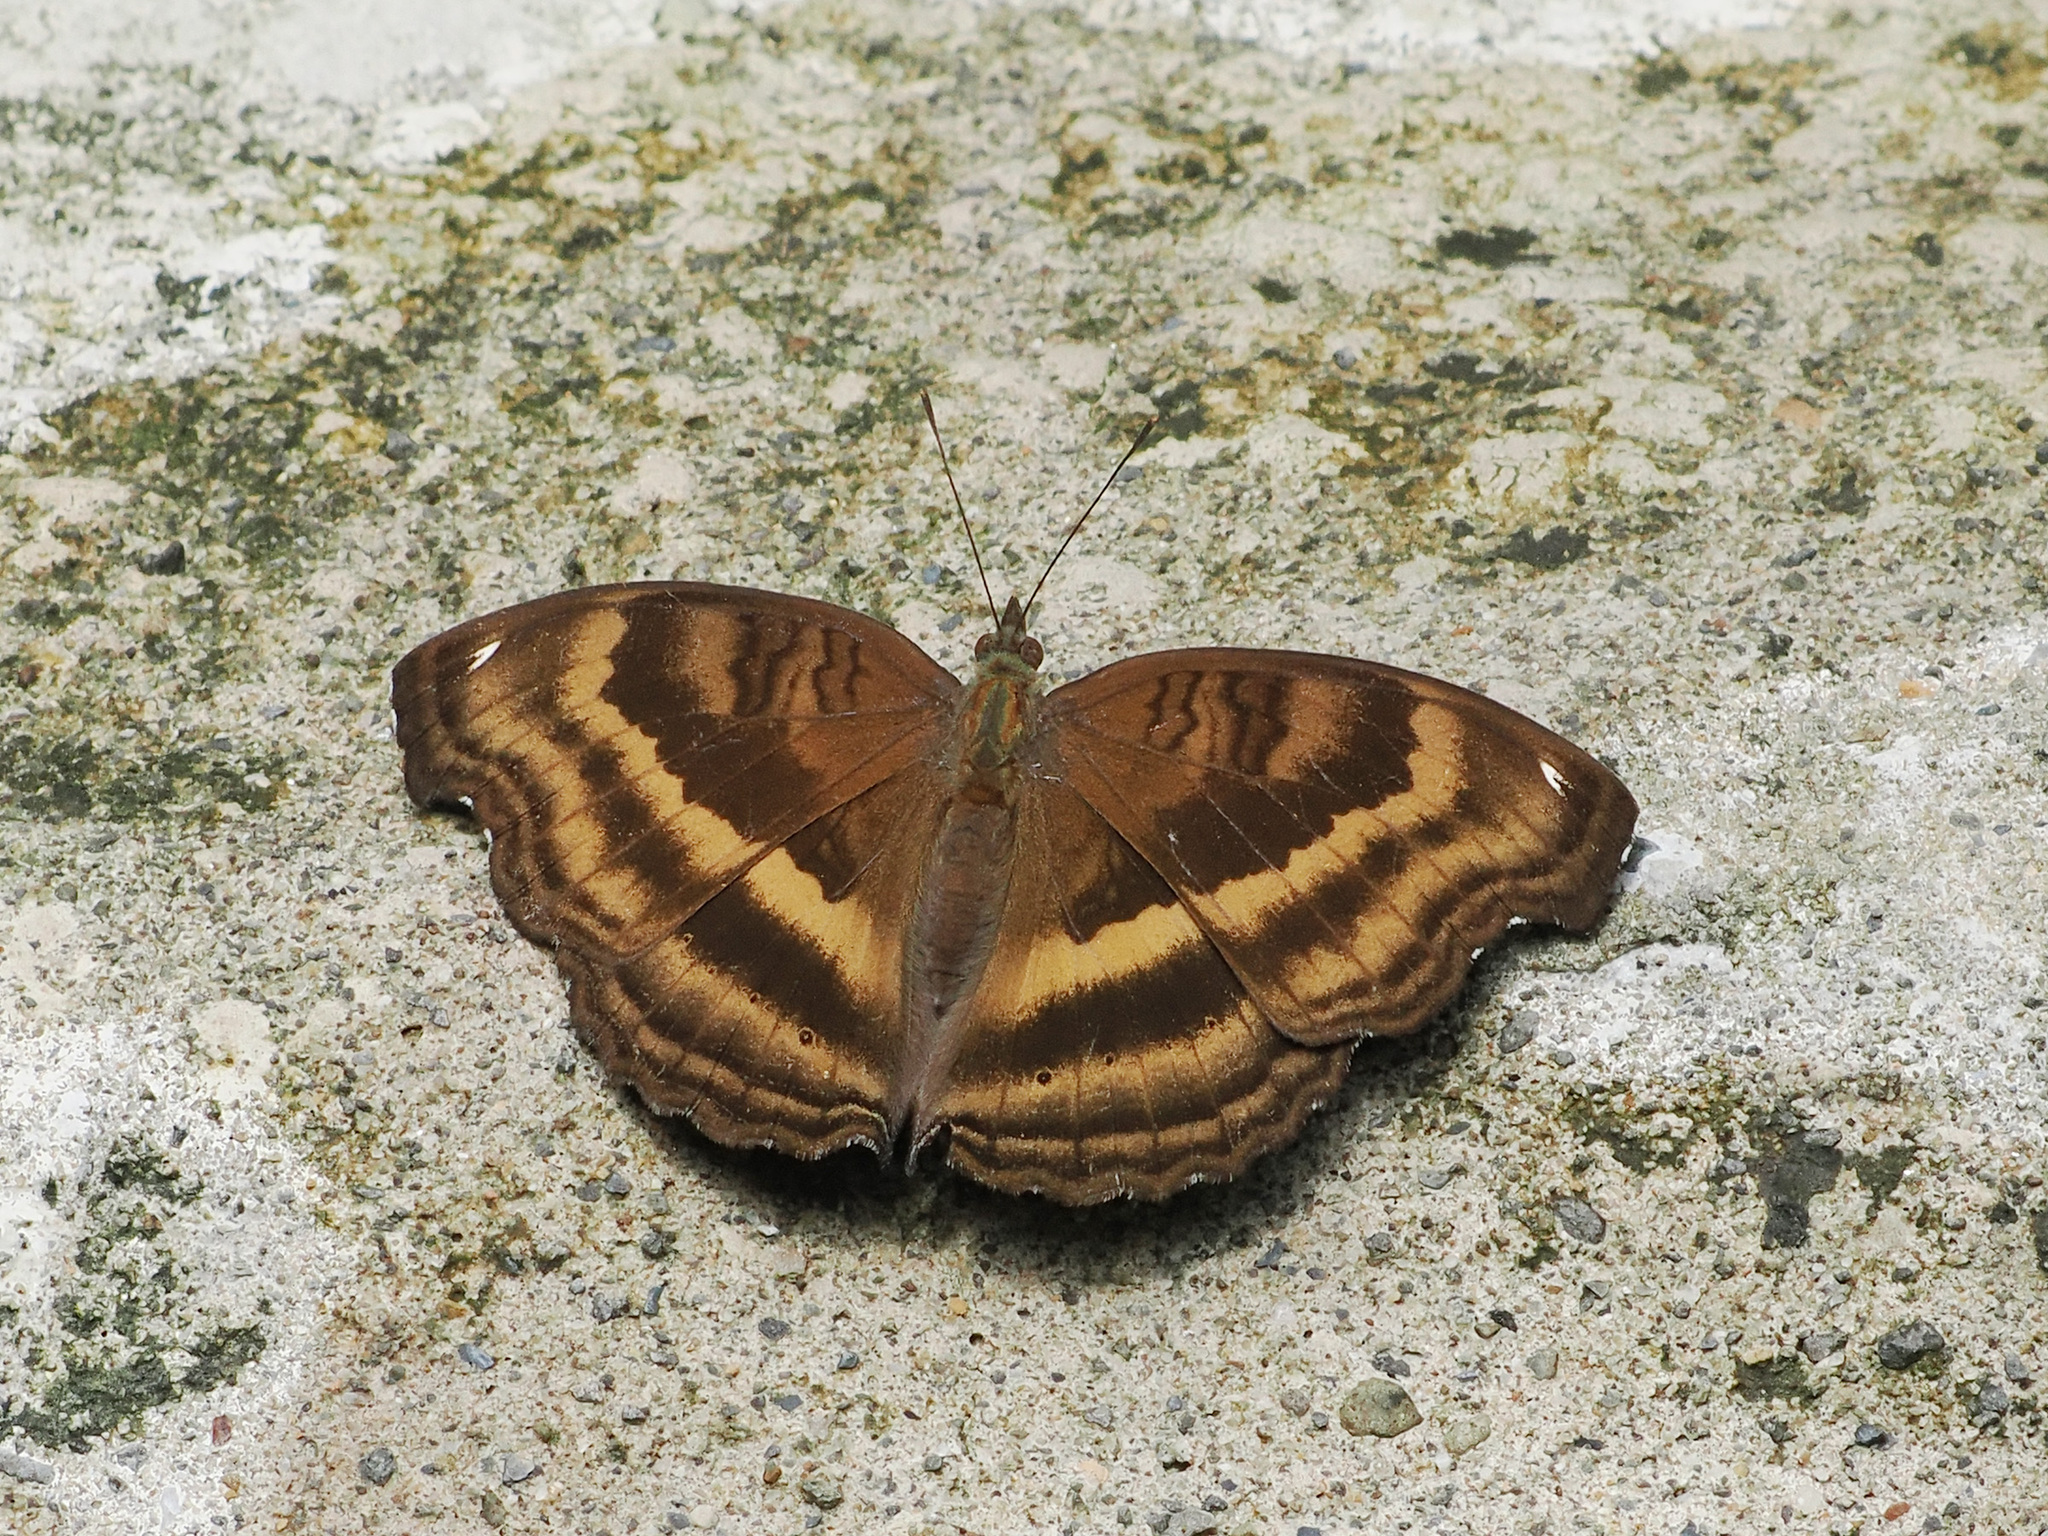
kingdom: Animalia
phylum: Arthropoda
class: Insecta
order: Lepidoptera
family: Nymphalidae
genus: Junonia
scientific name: Junonia iphita
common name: Chocolate pansy
